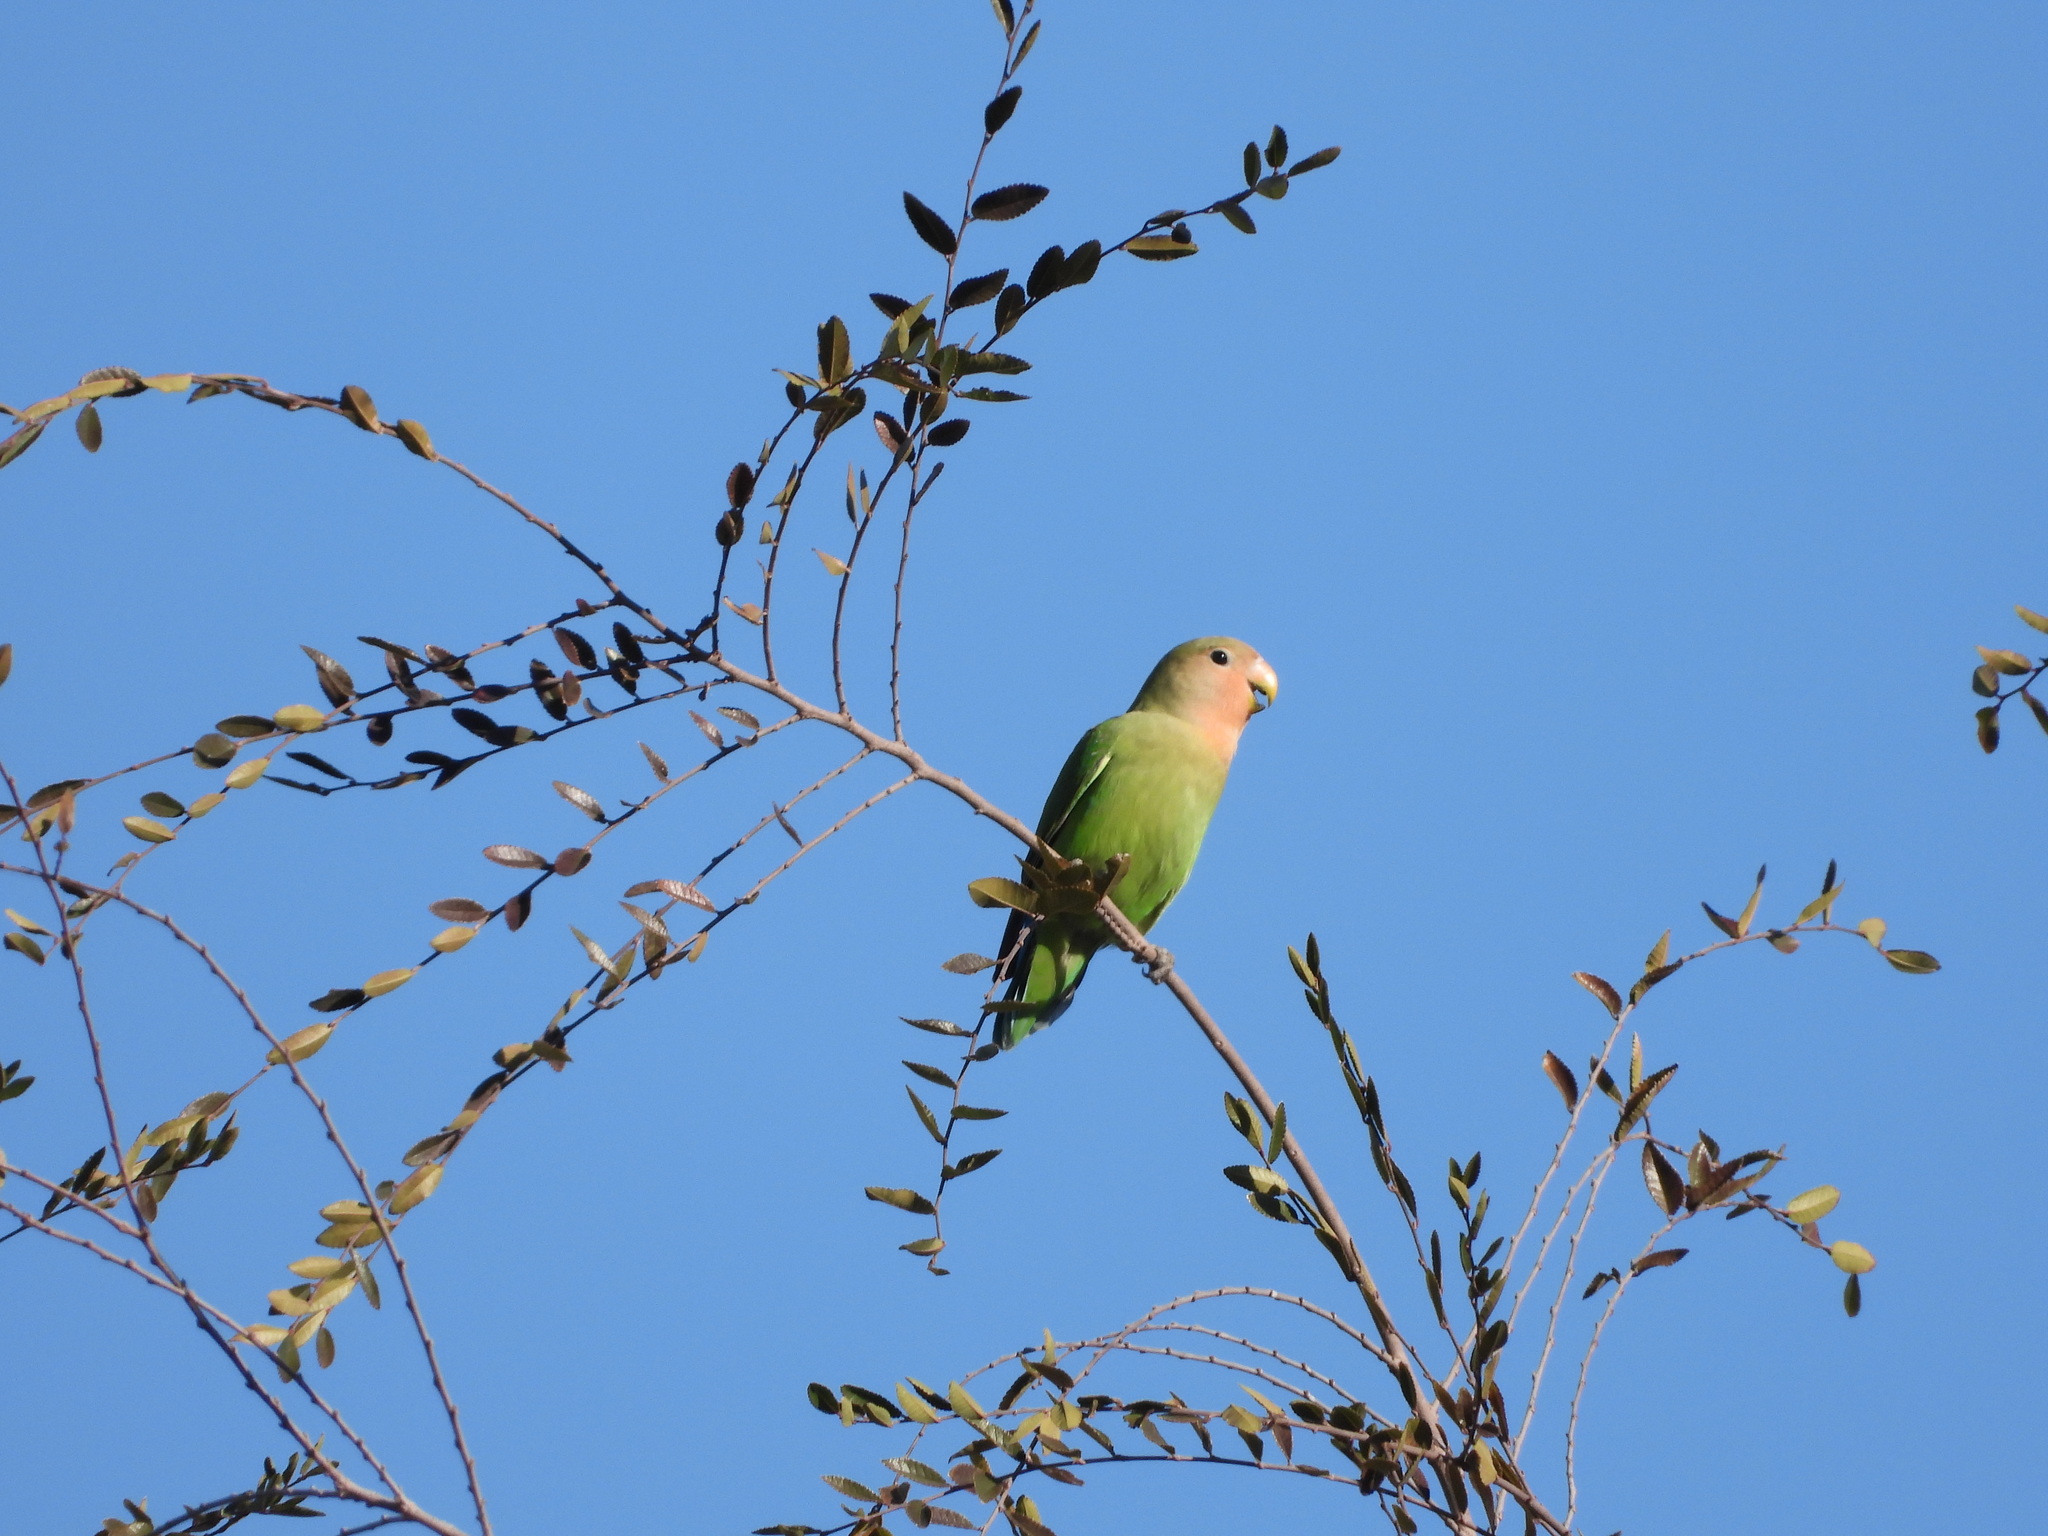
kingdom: Animalia
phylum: Chordata
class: Aves
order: Psittaciformes
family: Psittacidae
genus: Agapornis
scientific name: Agapornis roseicollis
